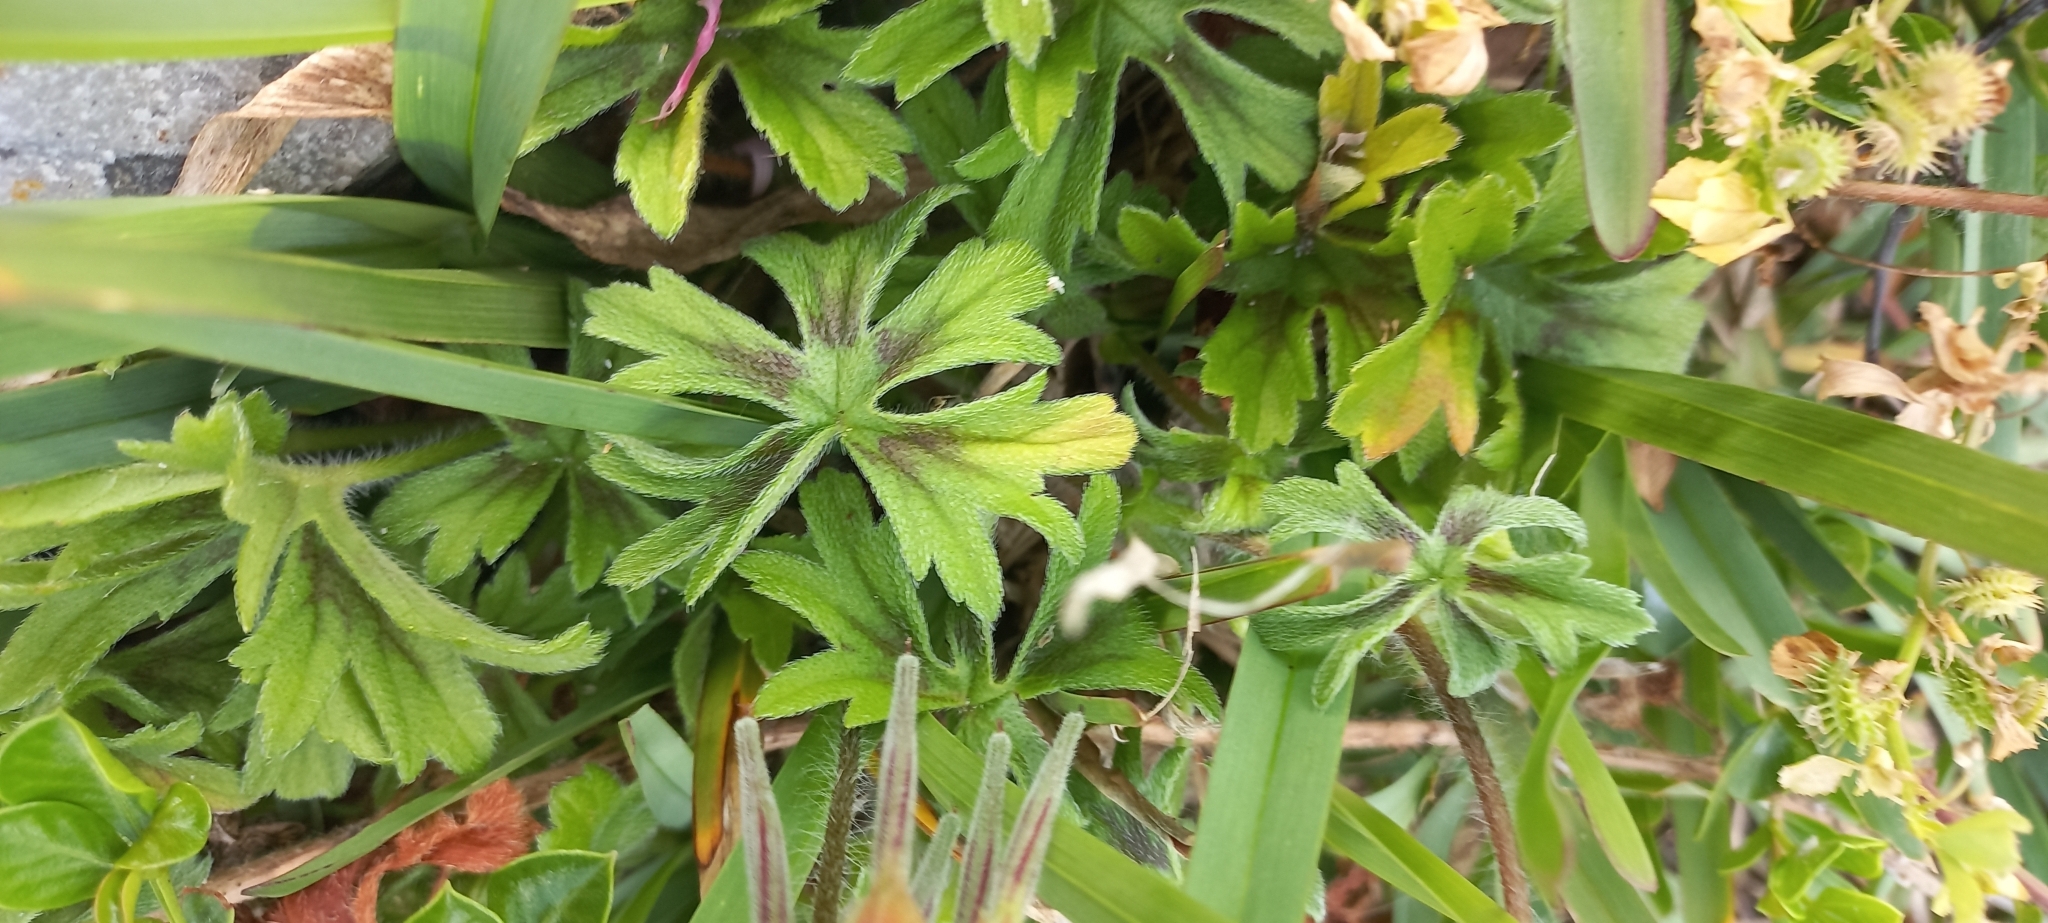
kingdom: Plantae
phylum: Tracheophyta
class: Magnoliopsida
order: Geraniales
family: Geraniaceae
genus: Pelargonium
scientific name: Pelargonium alchemilloides
